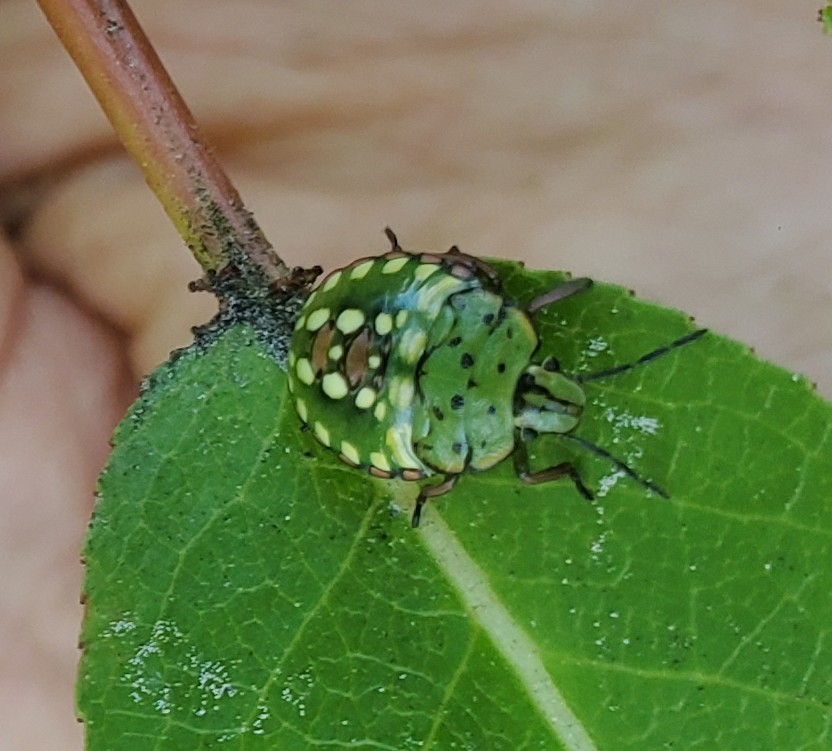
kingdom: Animalia
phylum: Arthropoda
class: Insecta
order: Hemiptera
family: Pentatomidae
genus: Nezara
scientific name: Nezara viridula
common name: Southern green stink bug
